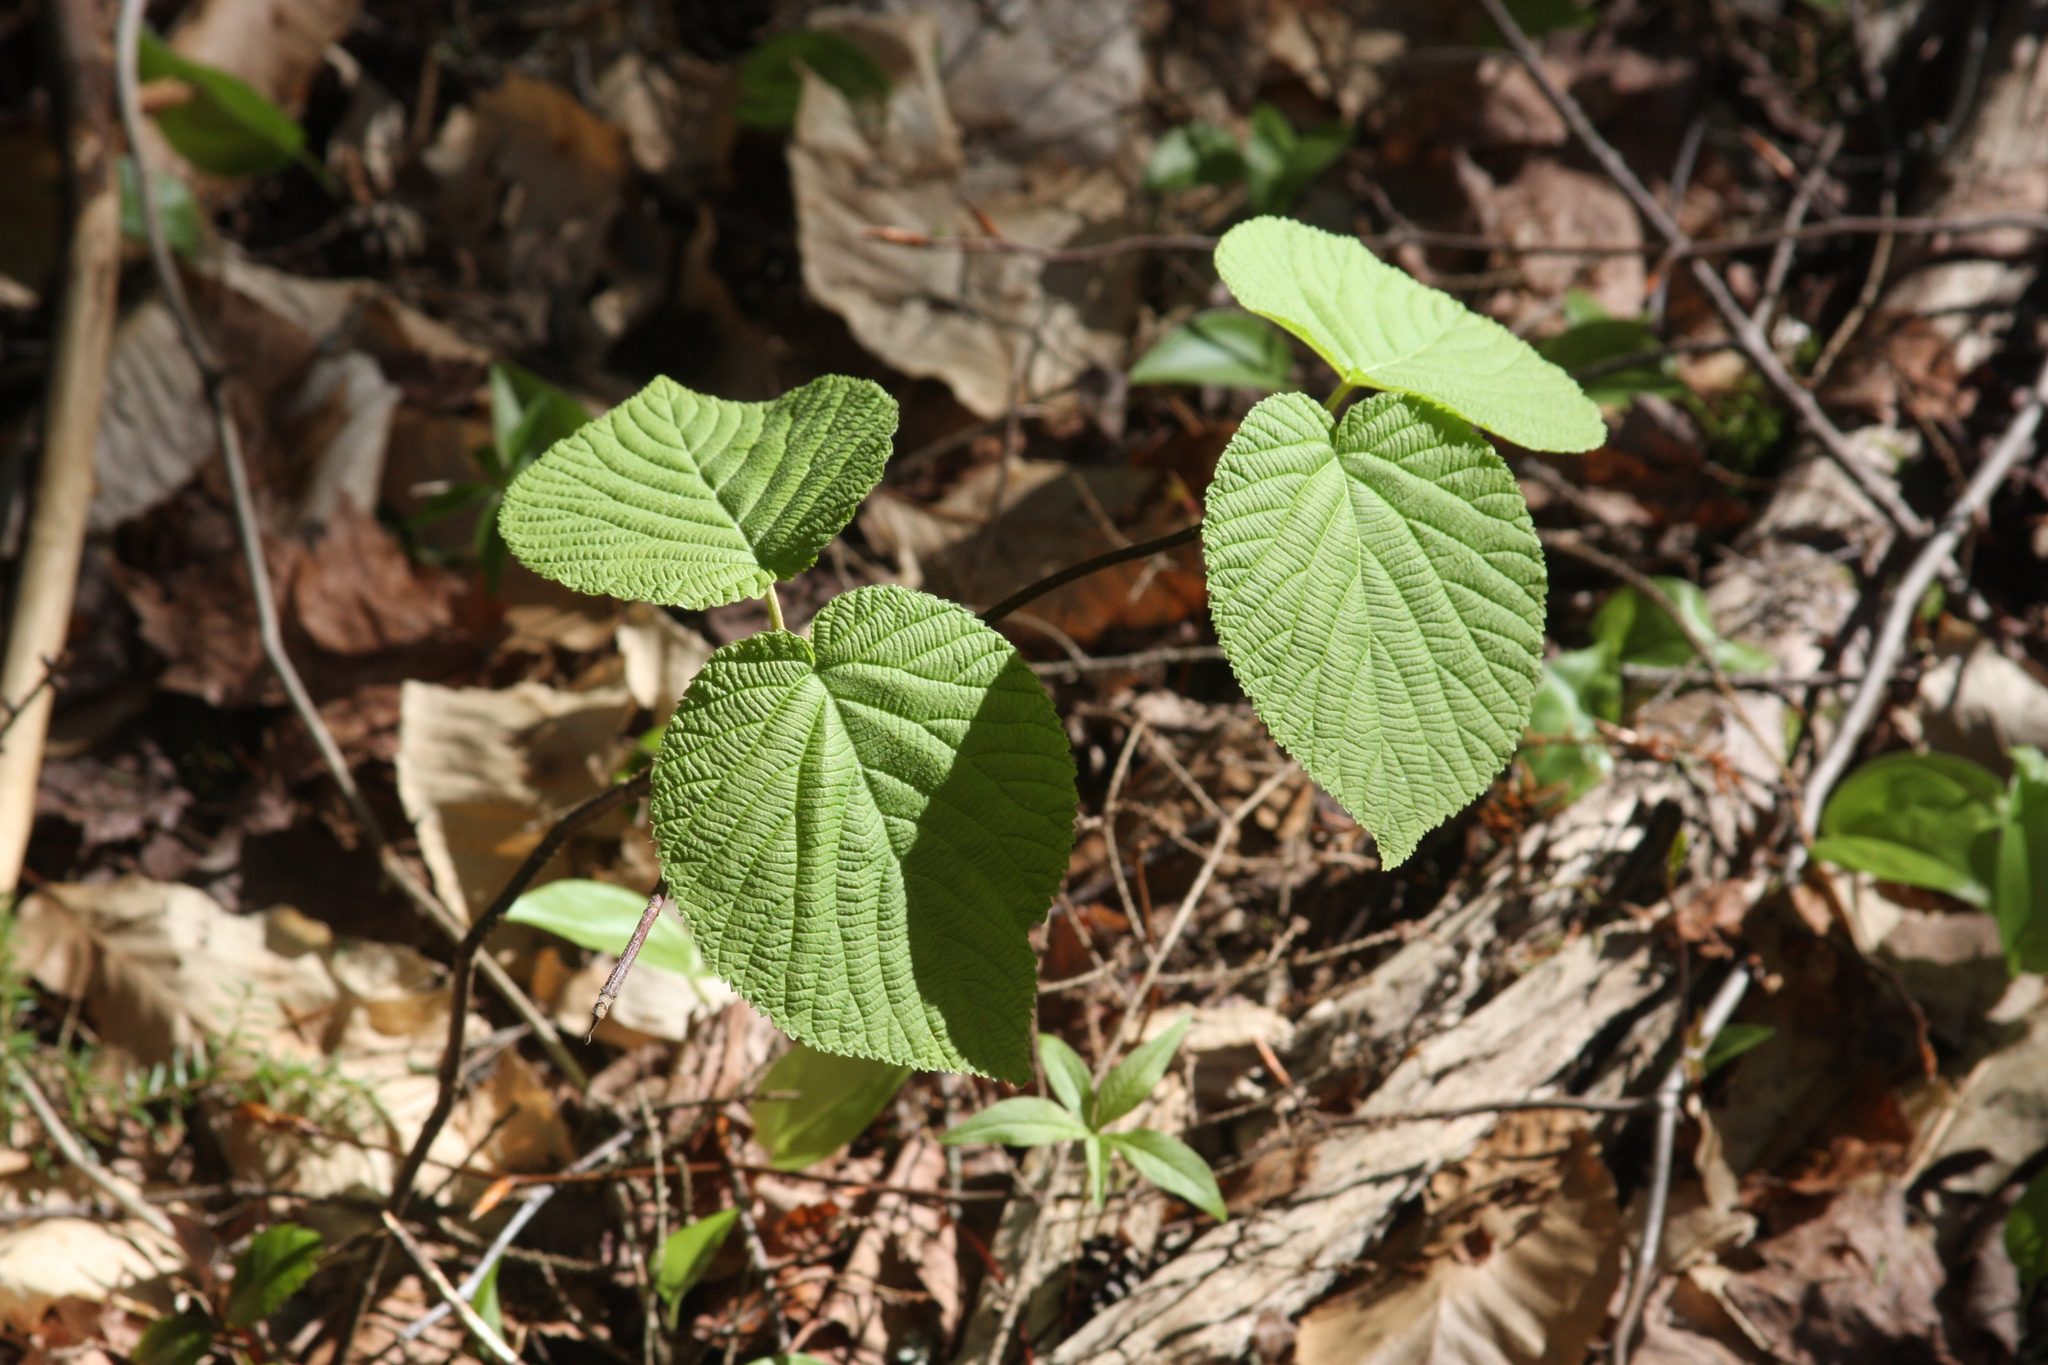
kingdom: Plantae
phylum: Tracheophyta
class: Magnoliopsida
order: Dipsacales
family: Viburnaceae
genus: Viburnum
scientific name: Viburnum lantanoides
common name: Hobblebush
